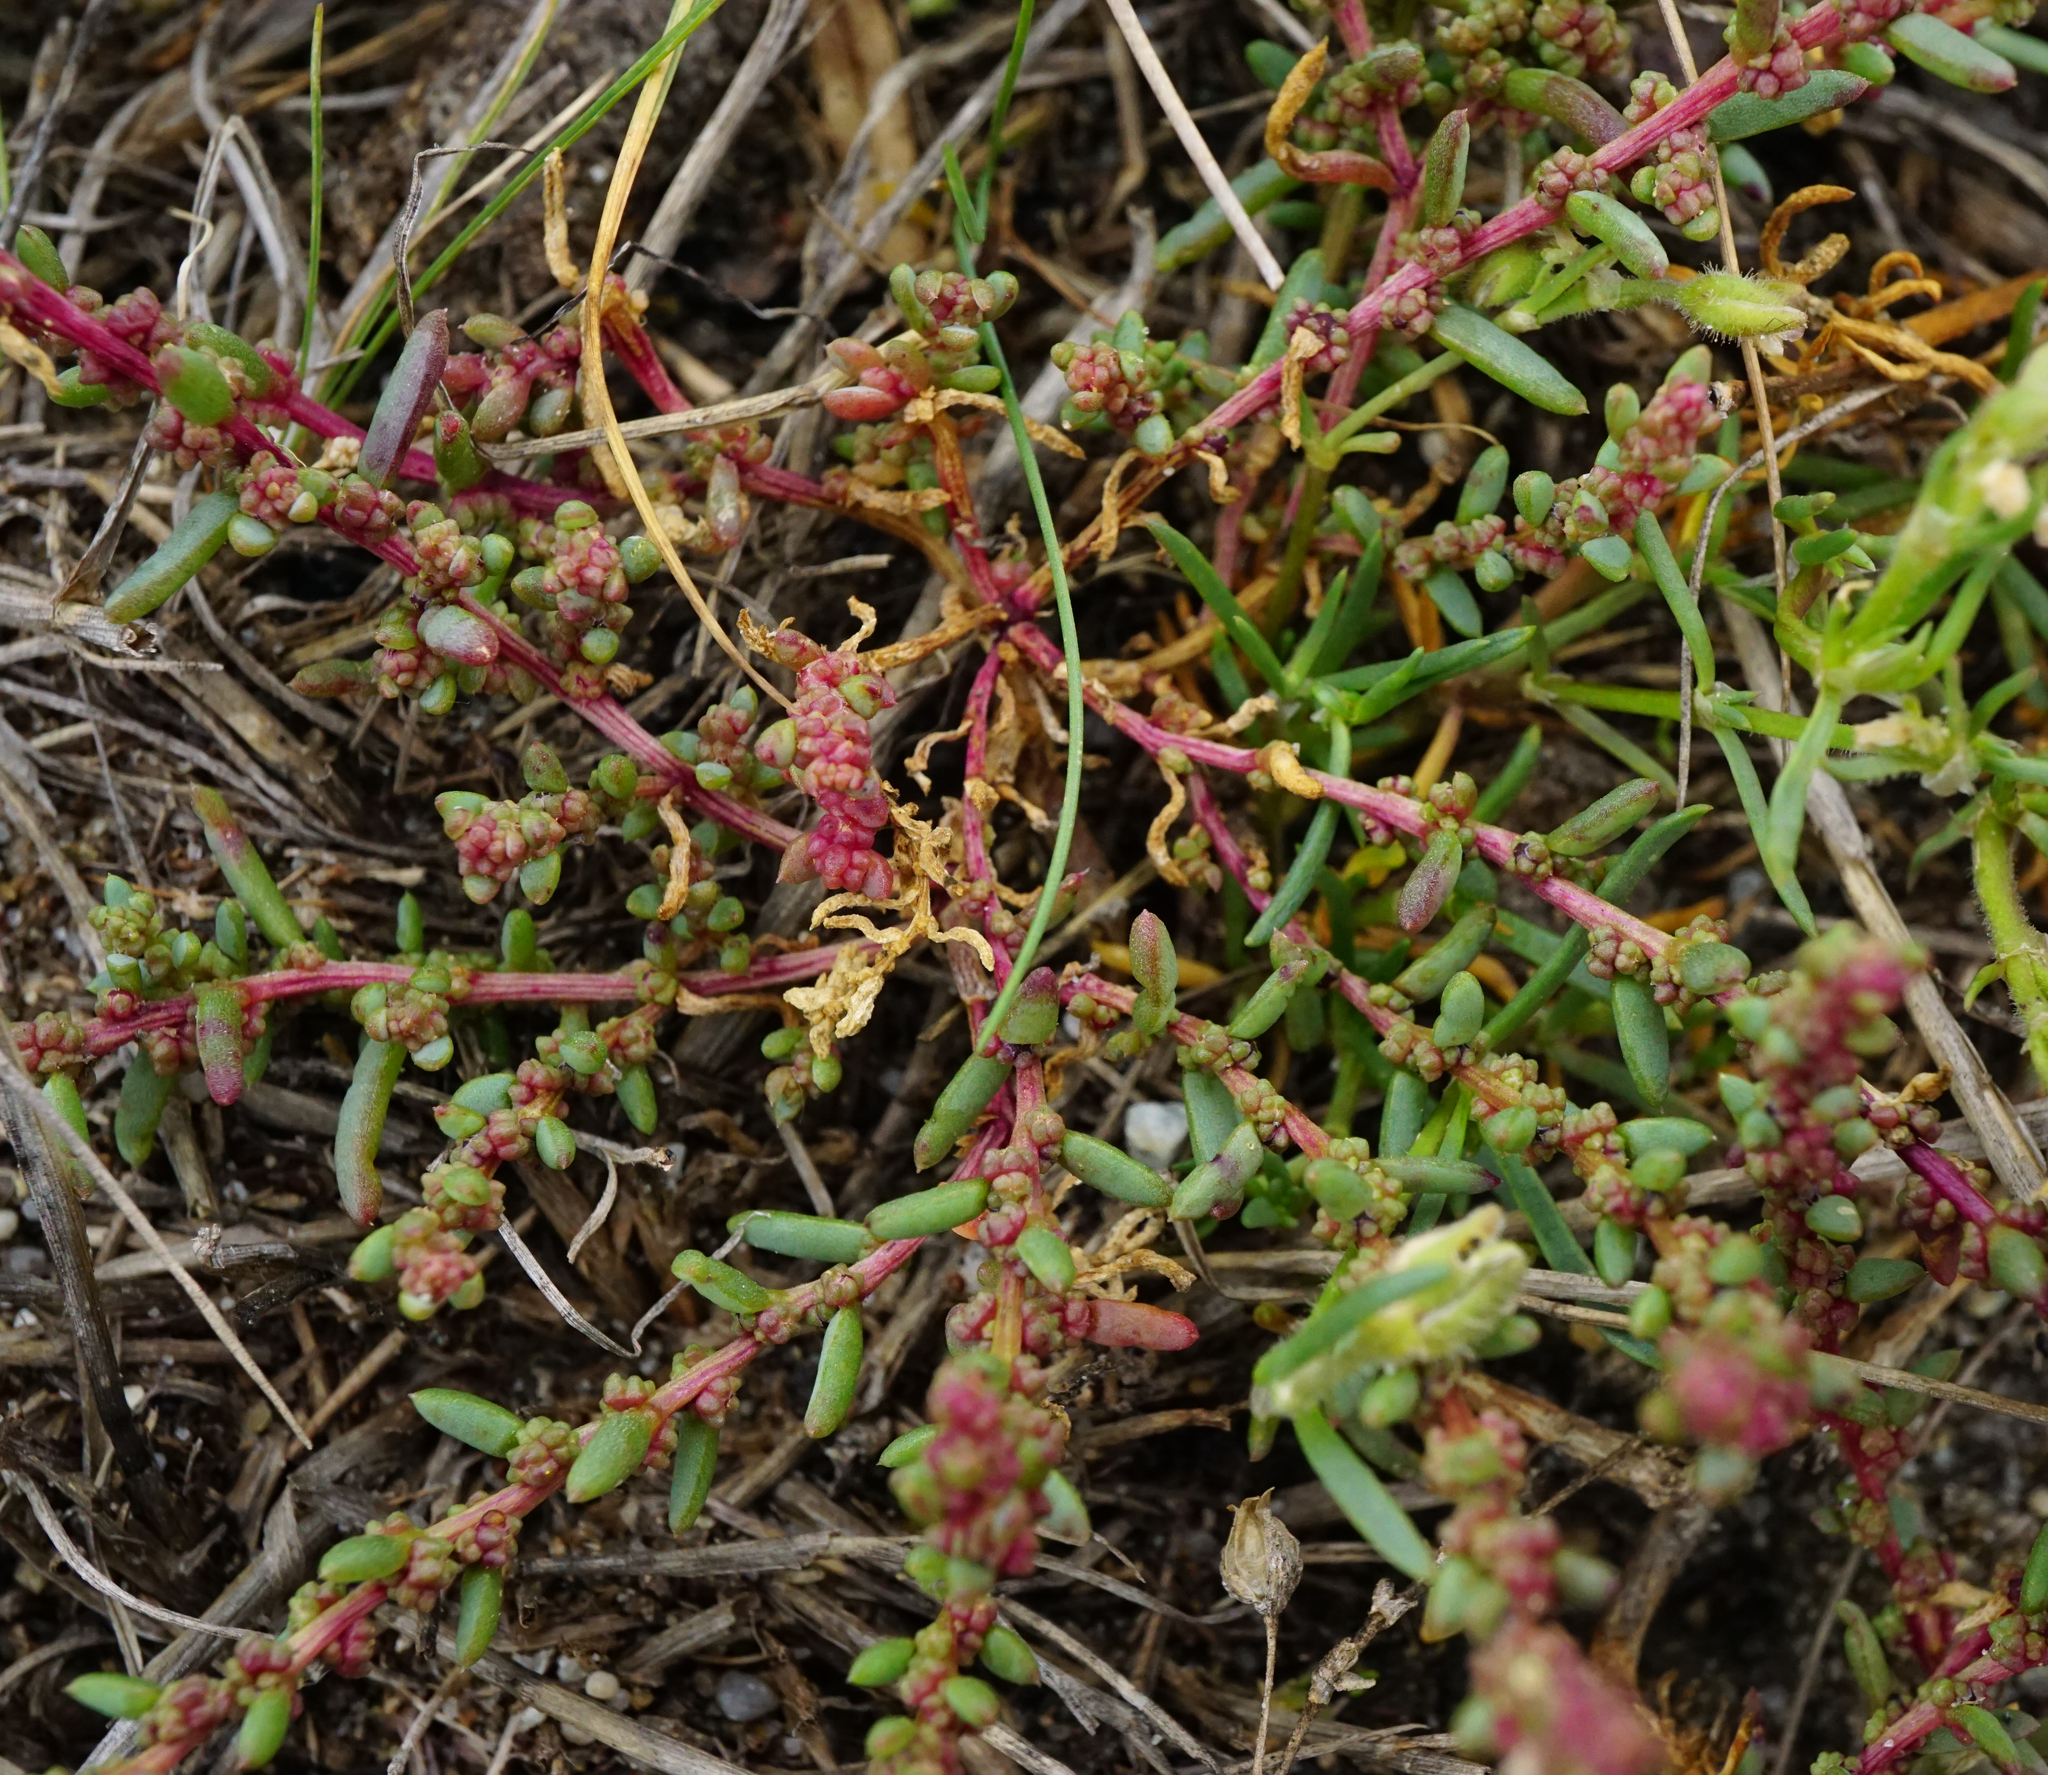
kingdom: Plantae
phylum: Tracheophyta
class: Magnoliopsida
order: Caryophyllales
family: Amaranthaceae
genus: Suaeda
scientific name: Suaeda prostrata
